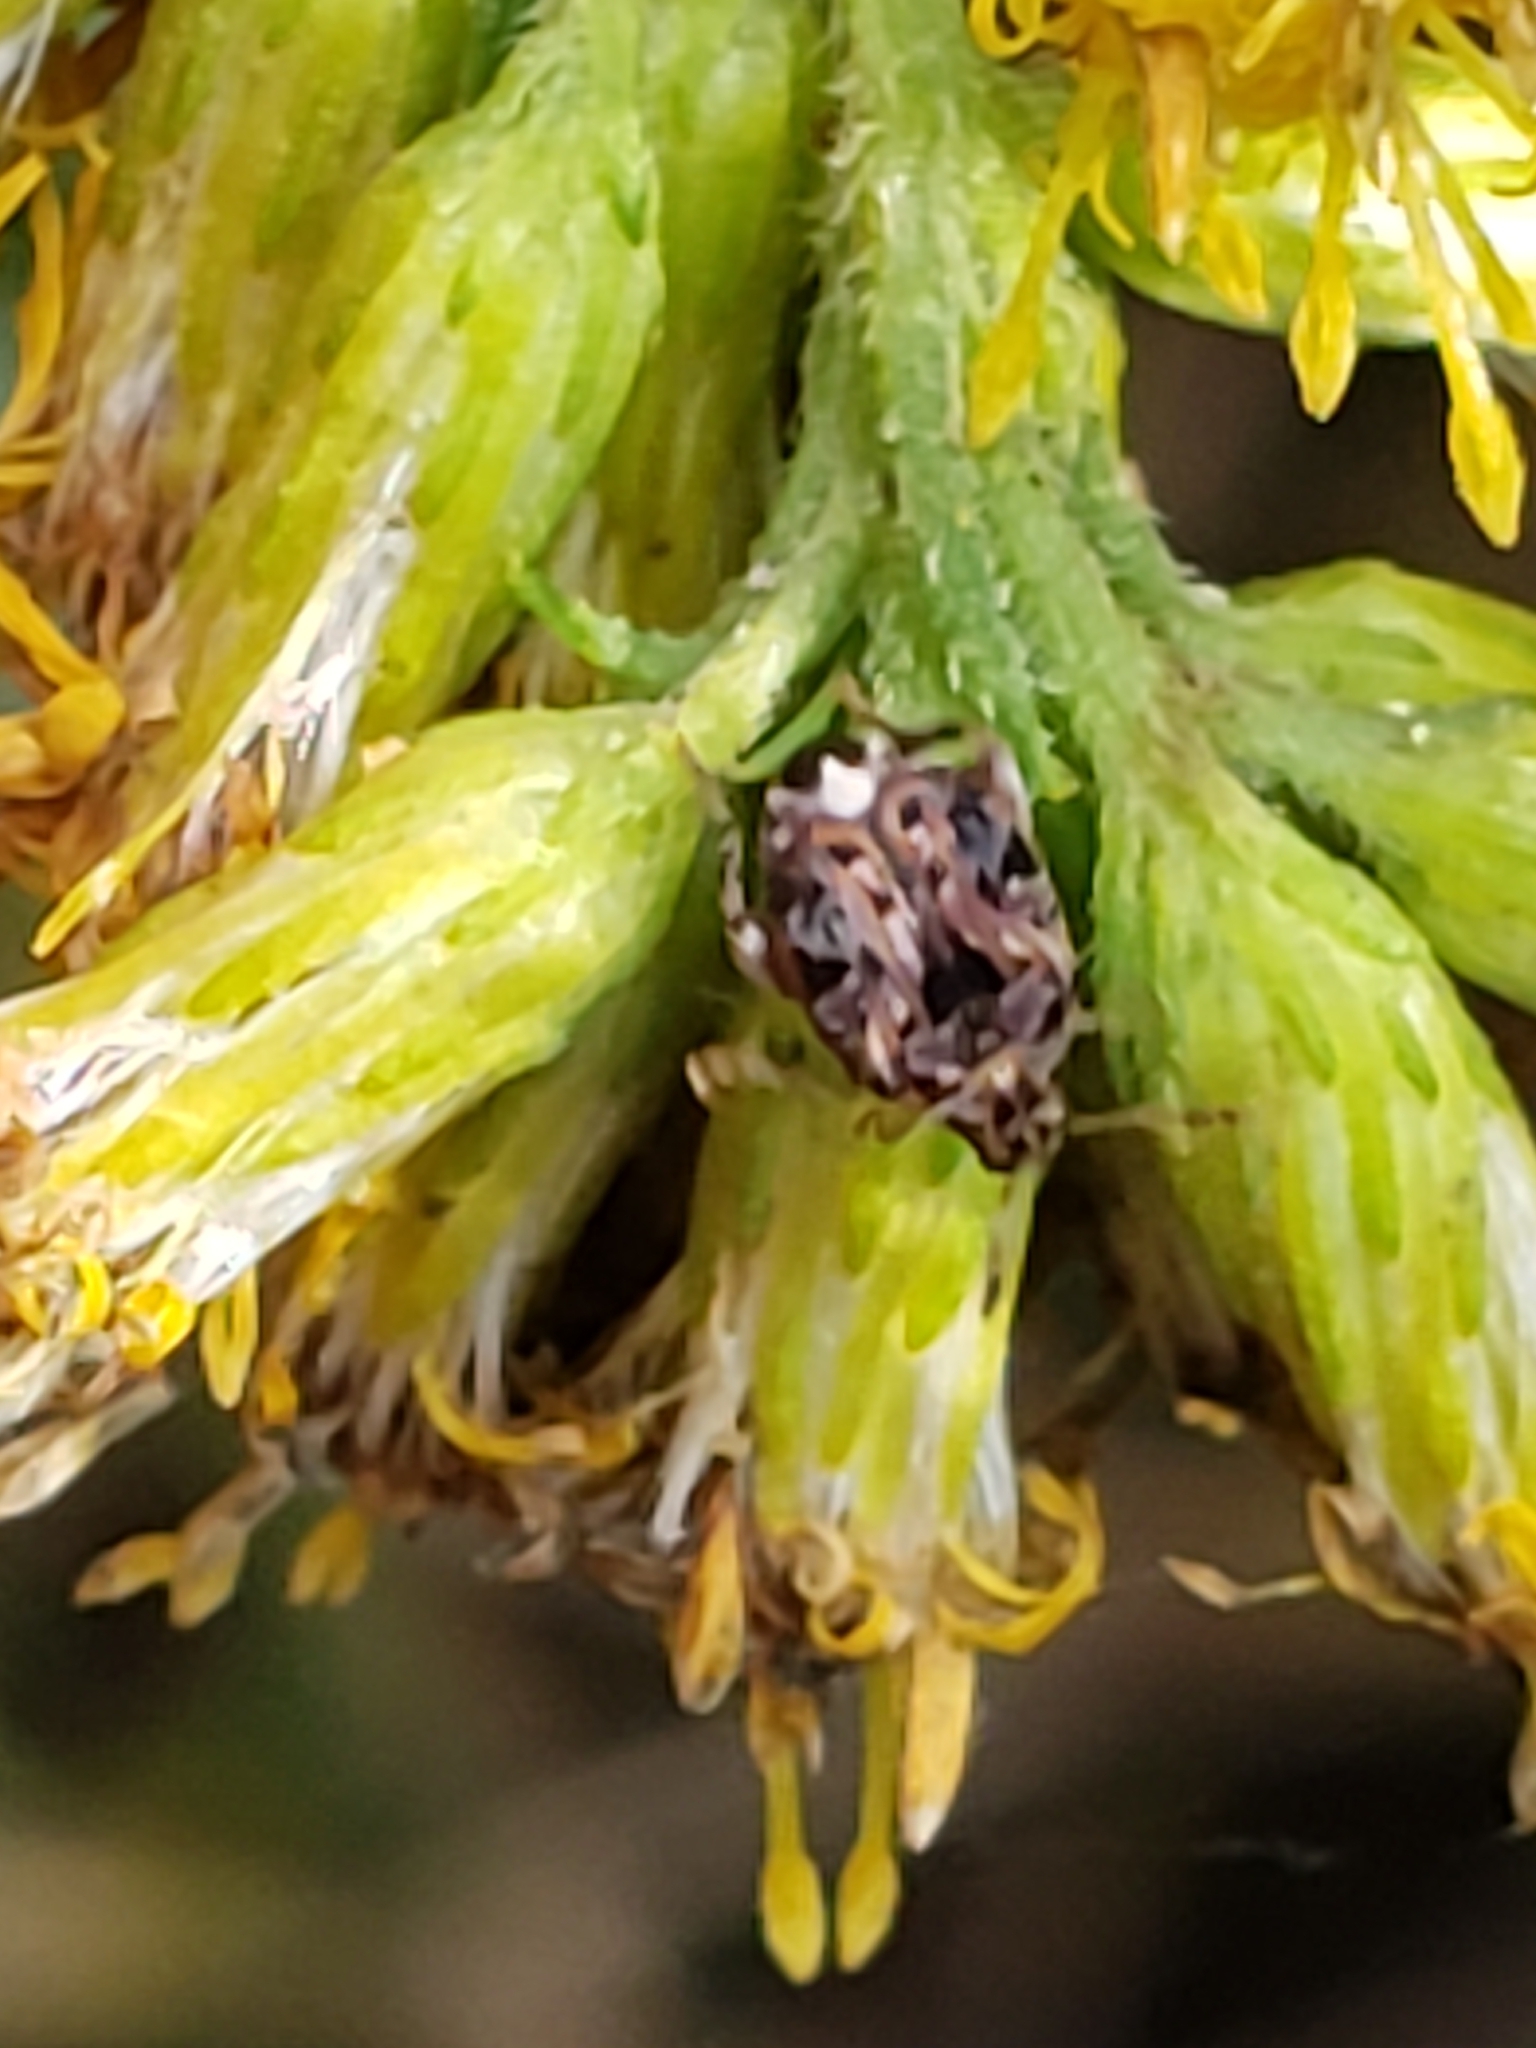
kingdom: Animalia
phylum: Arthropoda
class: Insecta
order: Coleoptera
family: Chrysomelidae
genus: Gibbobruchus
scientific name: Gibbobruchus mimus
